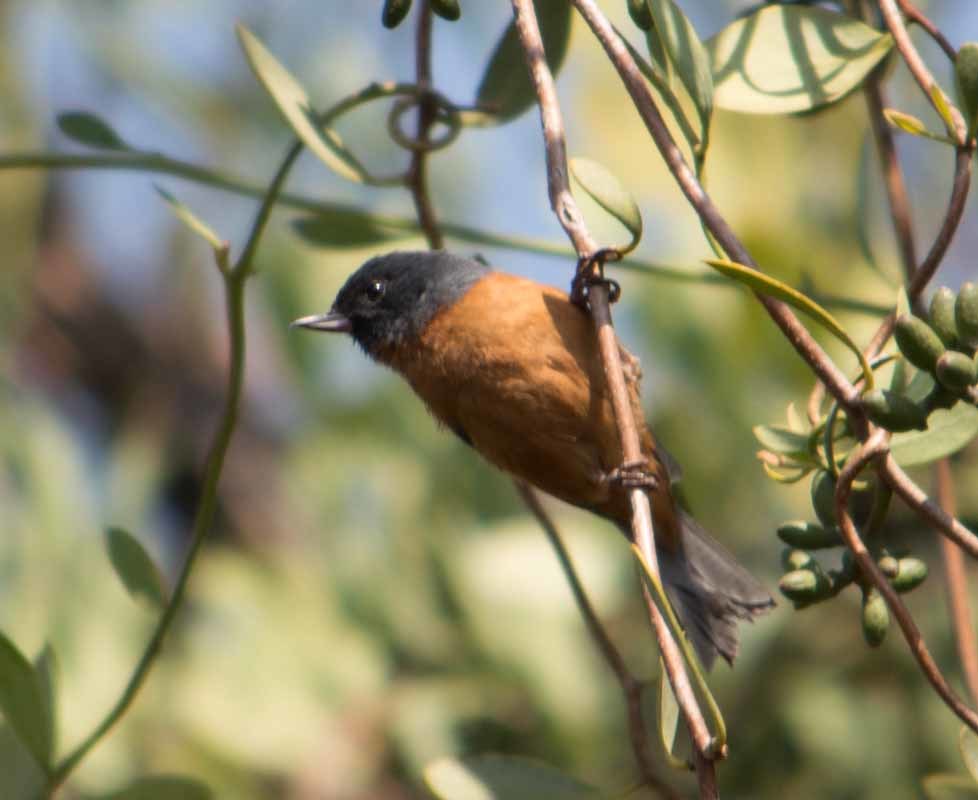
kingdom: Animalia
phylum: Chordata
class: Aves
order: Passeriformes
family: Thraupidae
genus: Diglossa
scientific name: Diglossa baritula
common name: Cinnamon-bellied flowerpiercer
